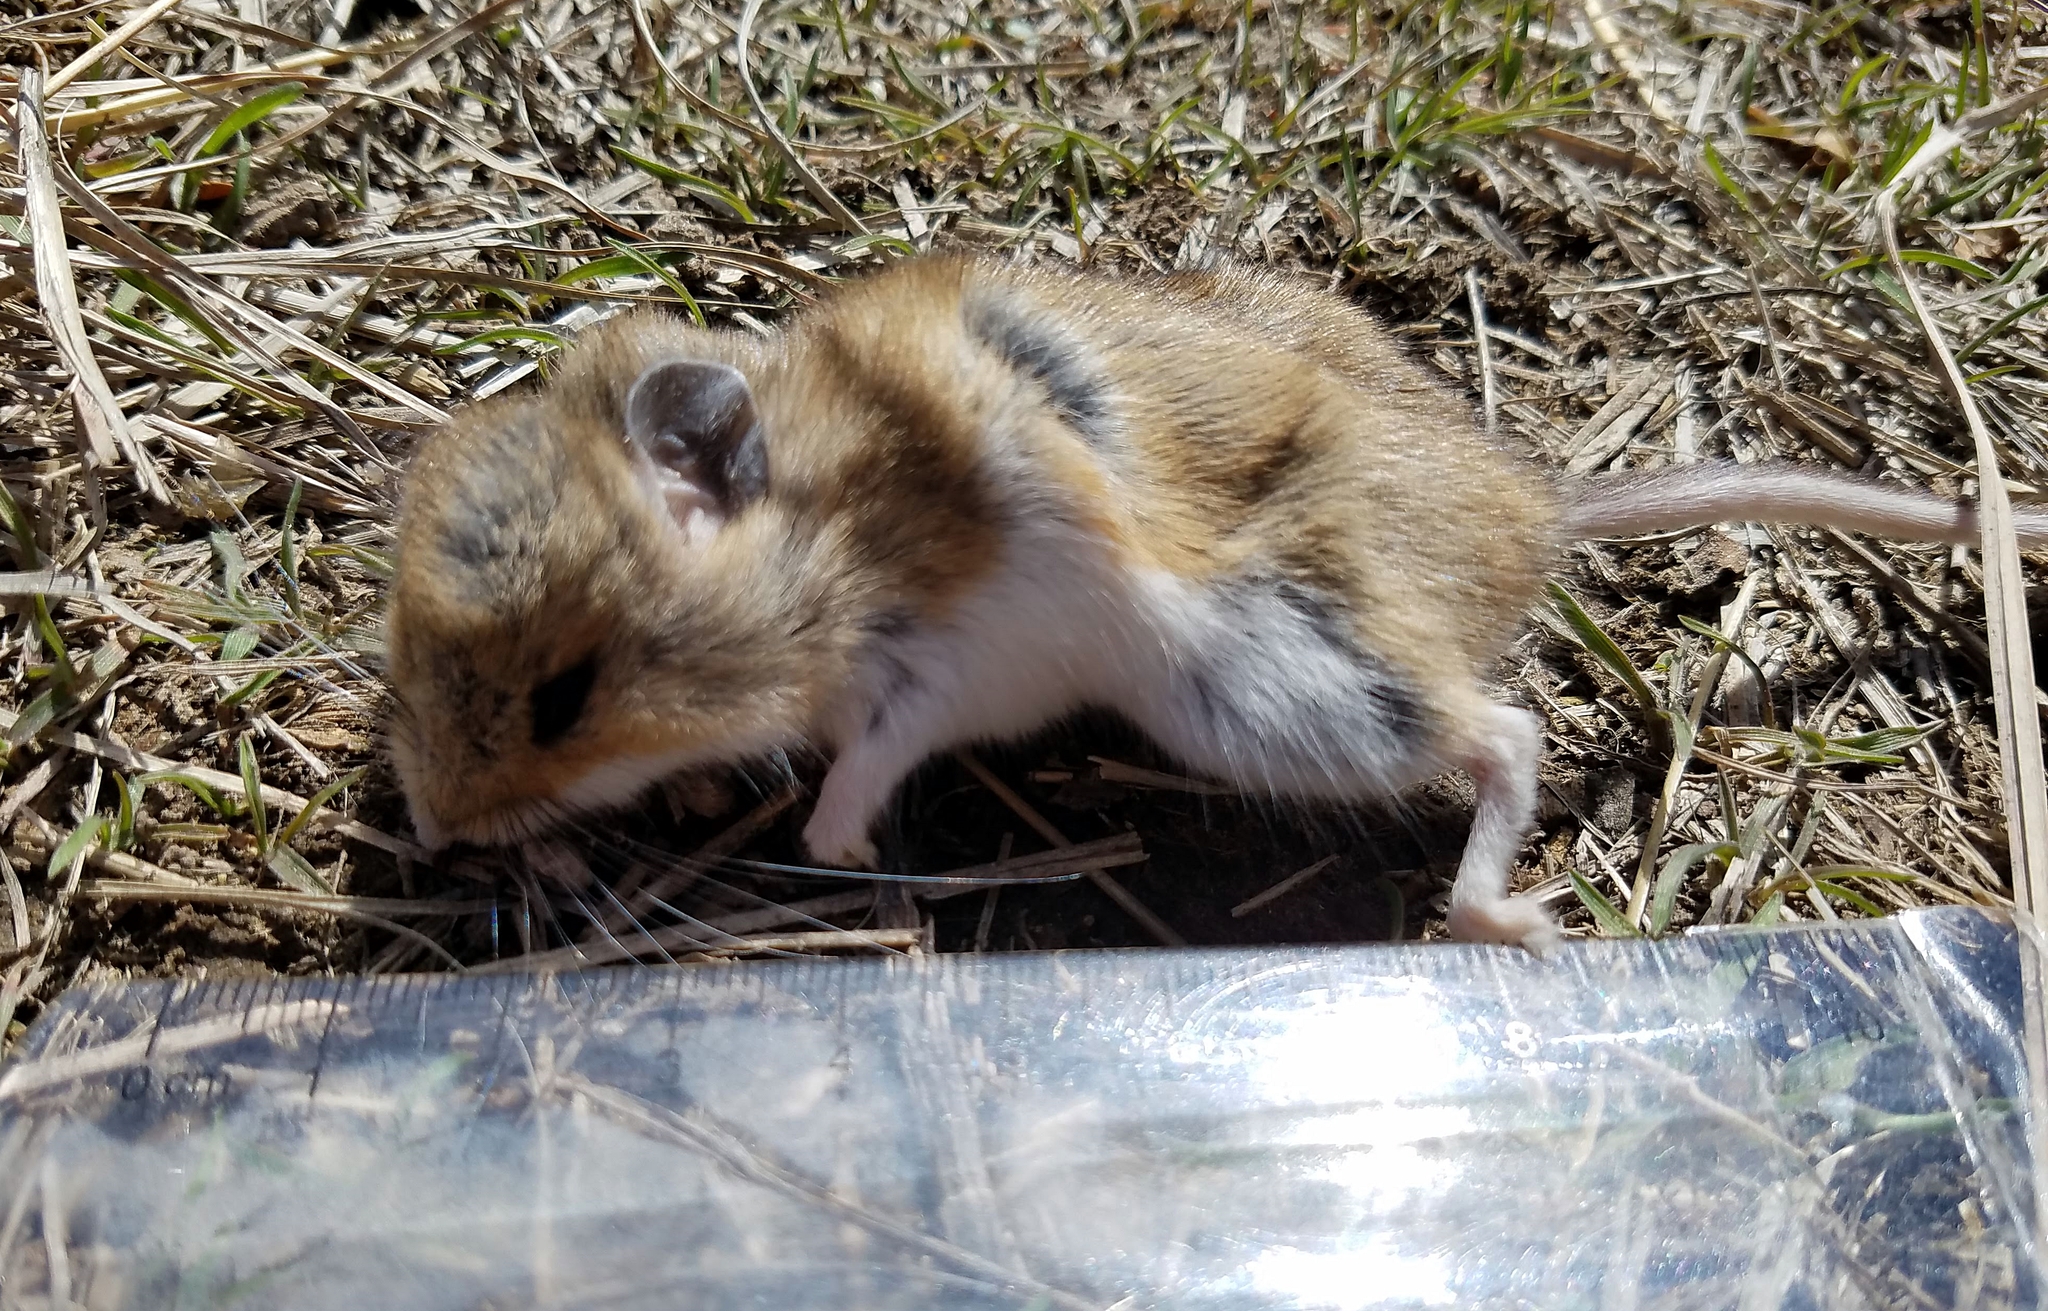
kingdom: Animalia
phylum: Chordata
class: Mammalia
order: Rodentia
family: Cricetidae
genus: Peromyscus
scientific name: Peromyscus maniculatus
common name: Deer mouse
